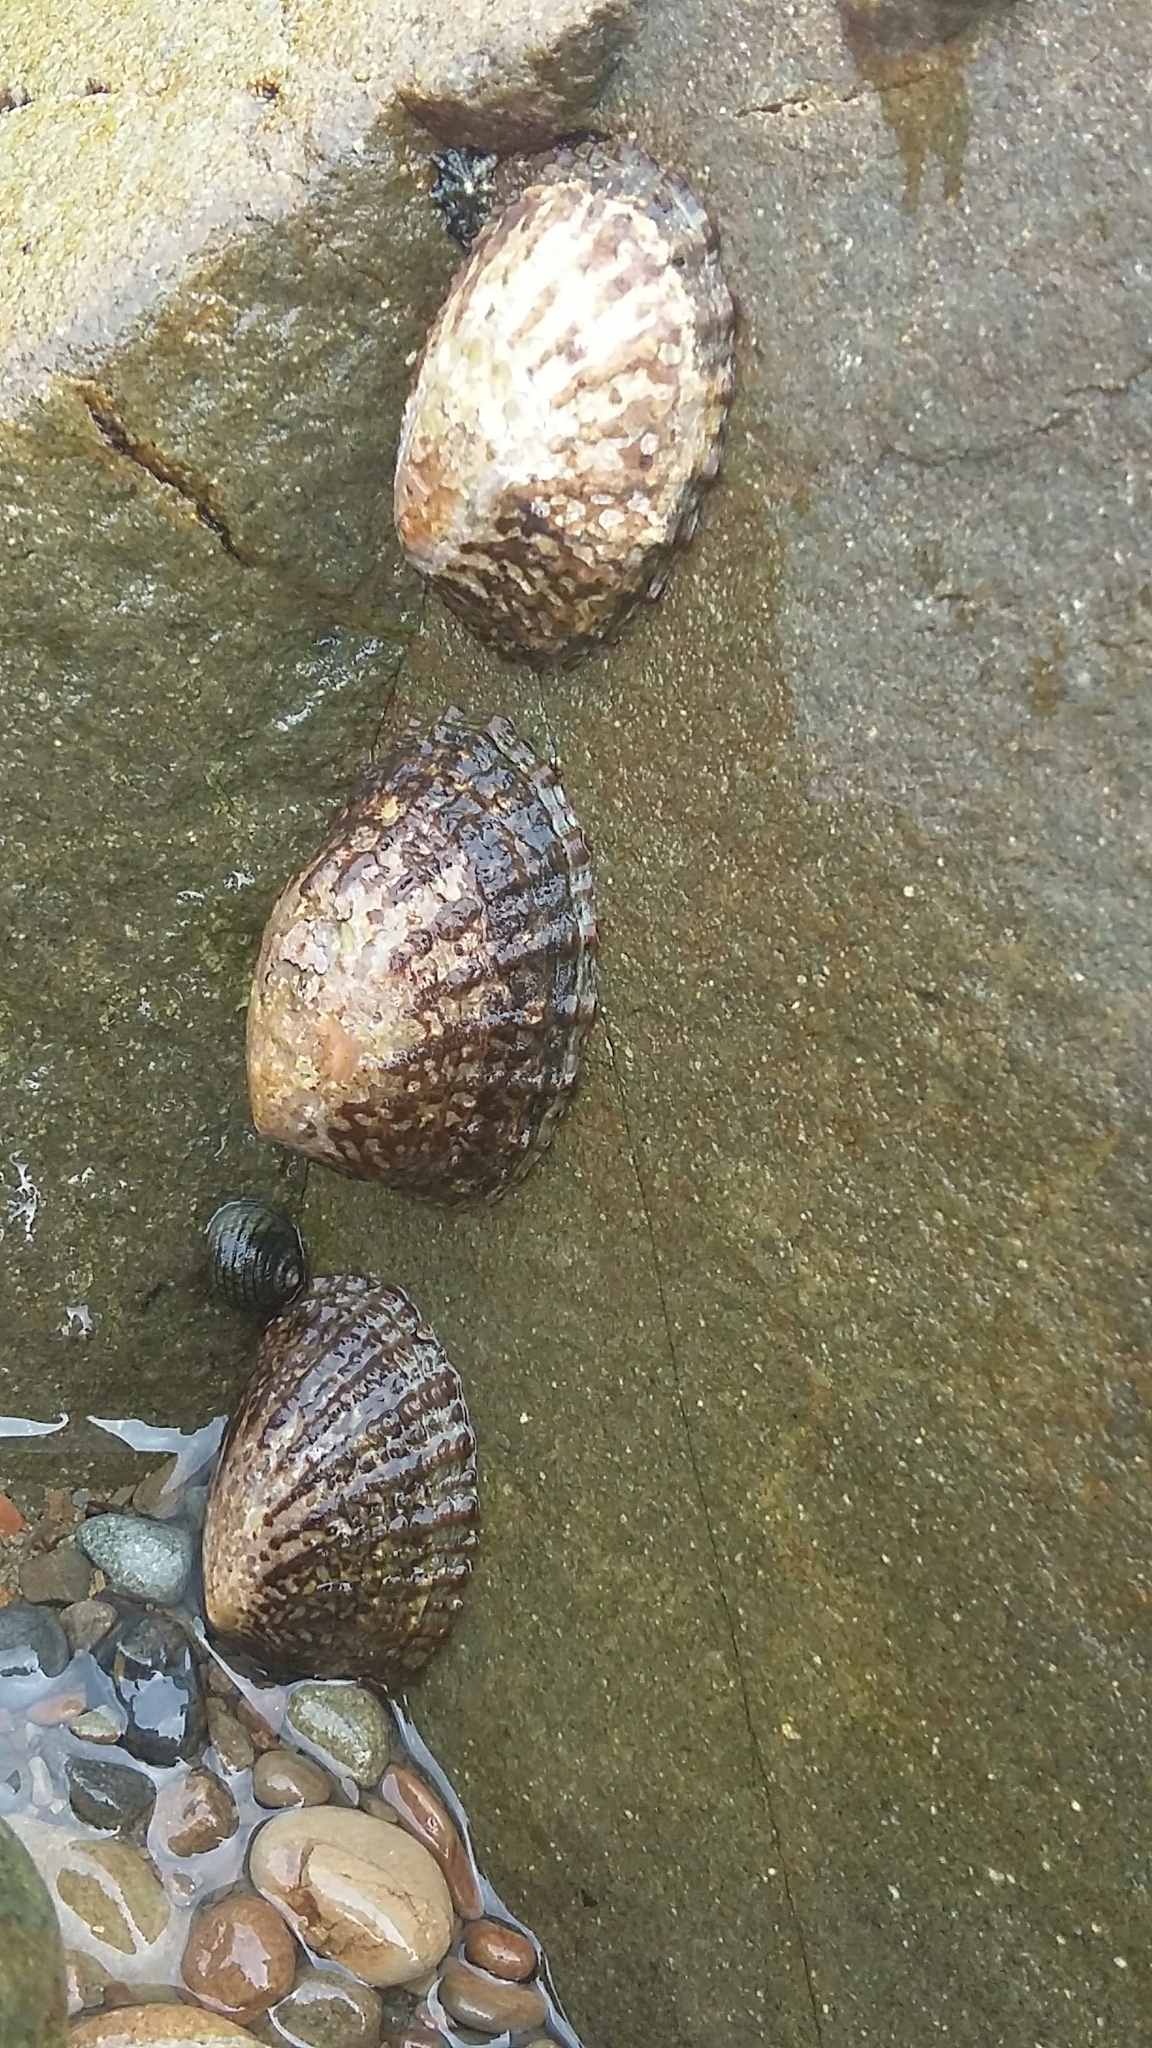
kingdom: Animalia
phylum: Mollusca
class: Gastropoda
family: Nacellidae
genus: Cellana
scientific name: Cellana denticulata
